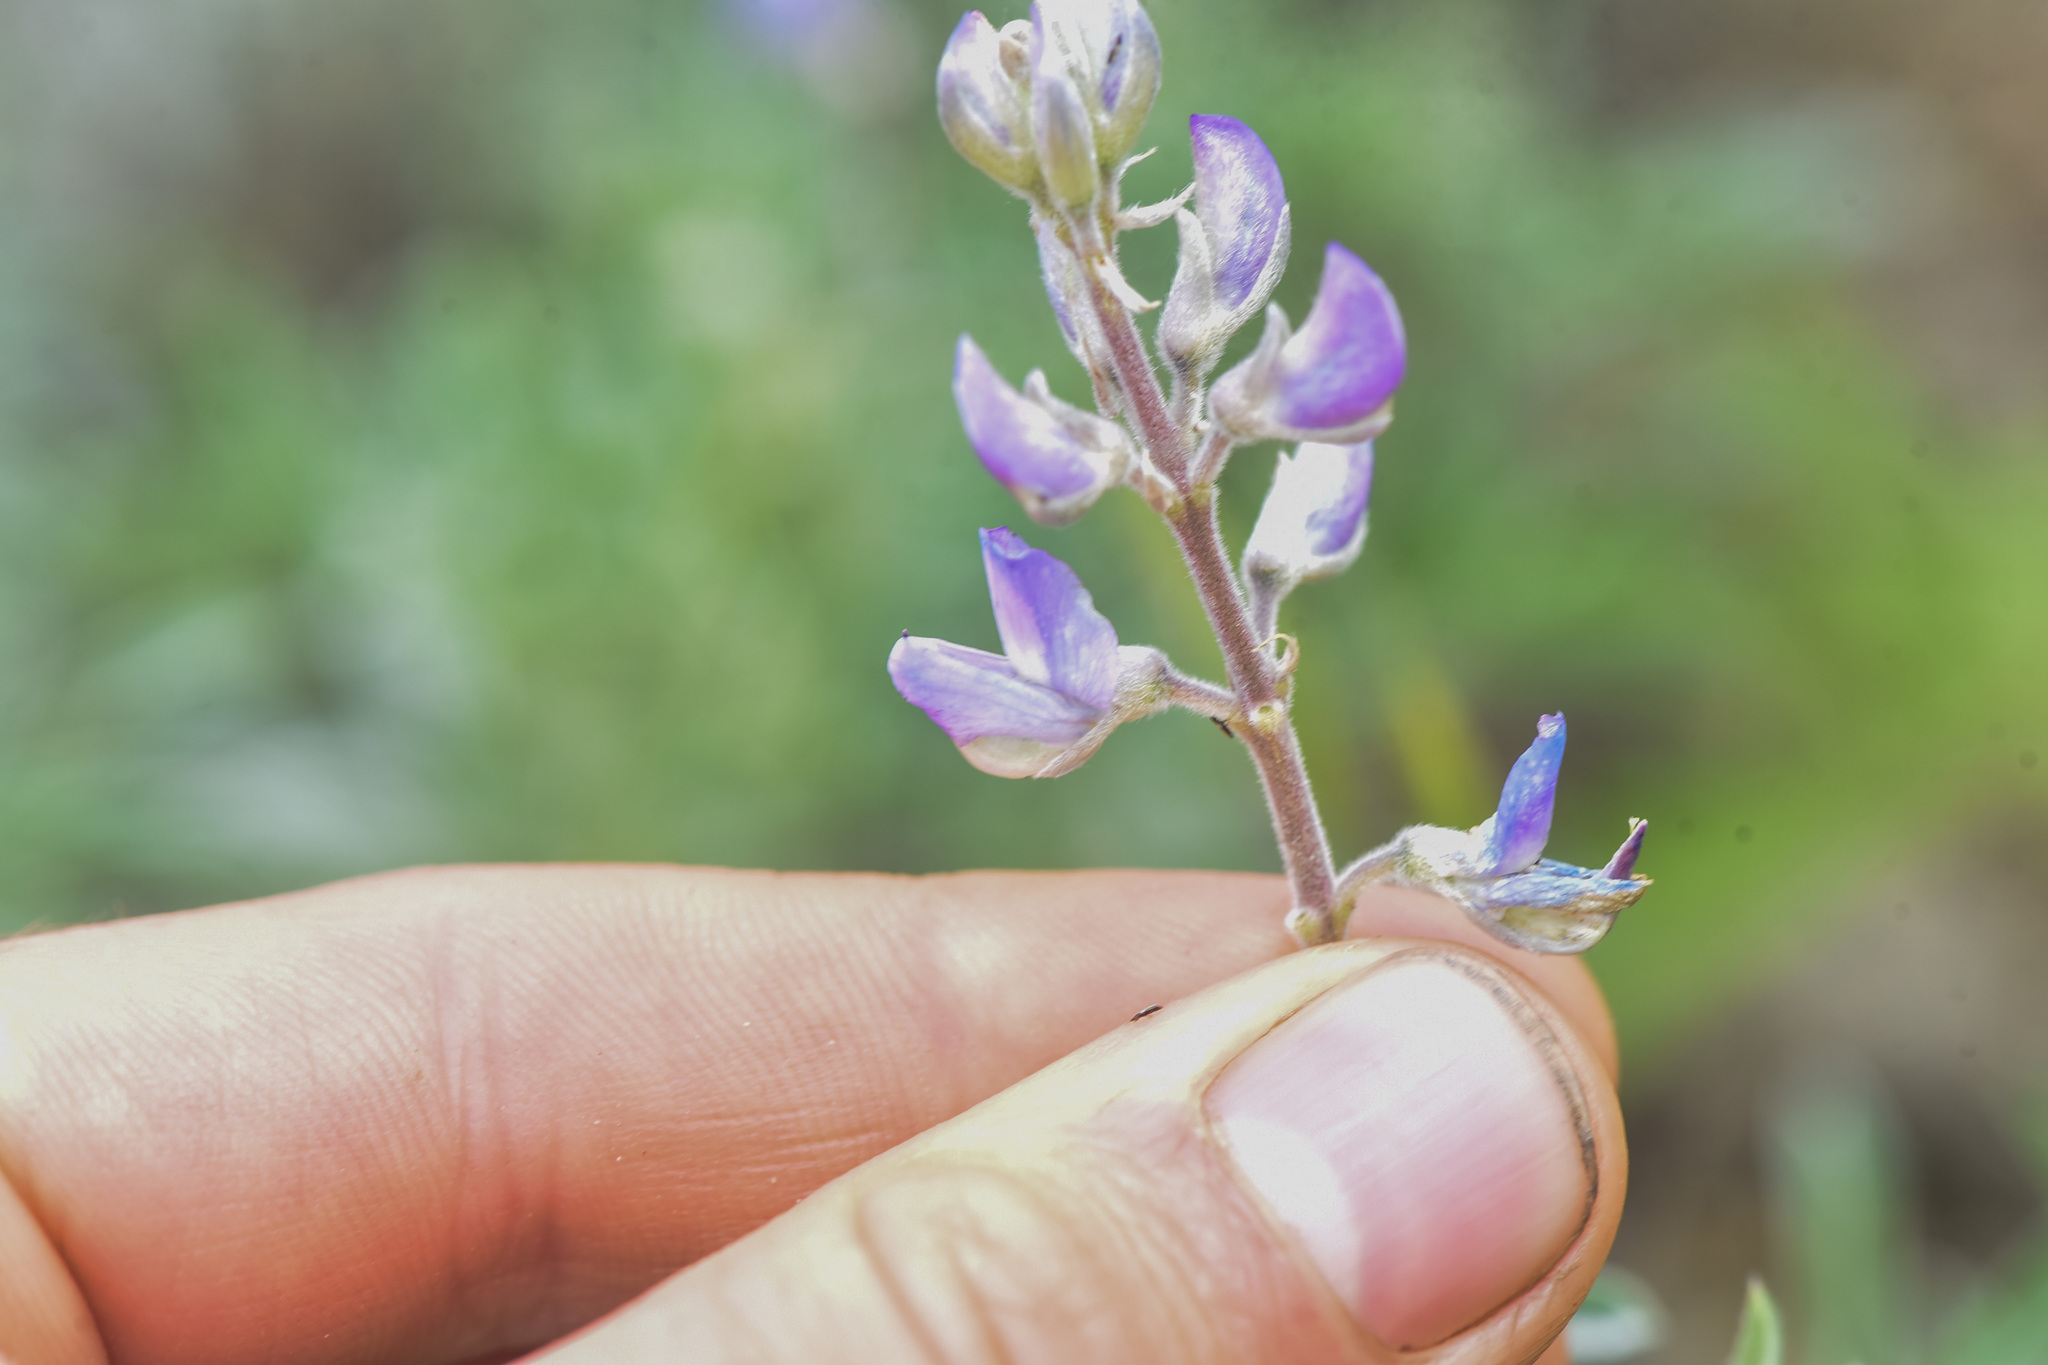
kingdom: Plantae
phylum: Tracheophyta
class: Magnoliopsida
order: Fabales
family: Fabaceae
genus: Lupinus
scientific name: Lupinus sericeus
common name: Silky lupine
